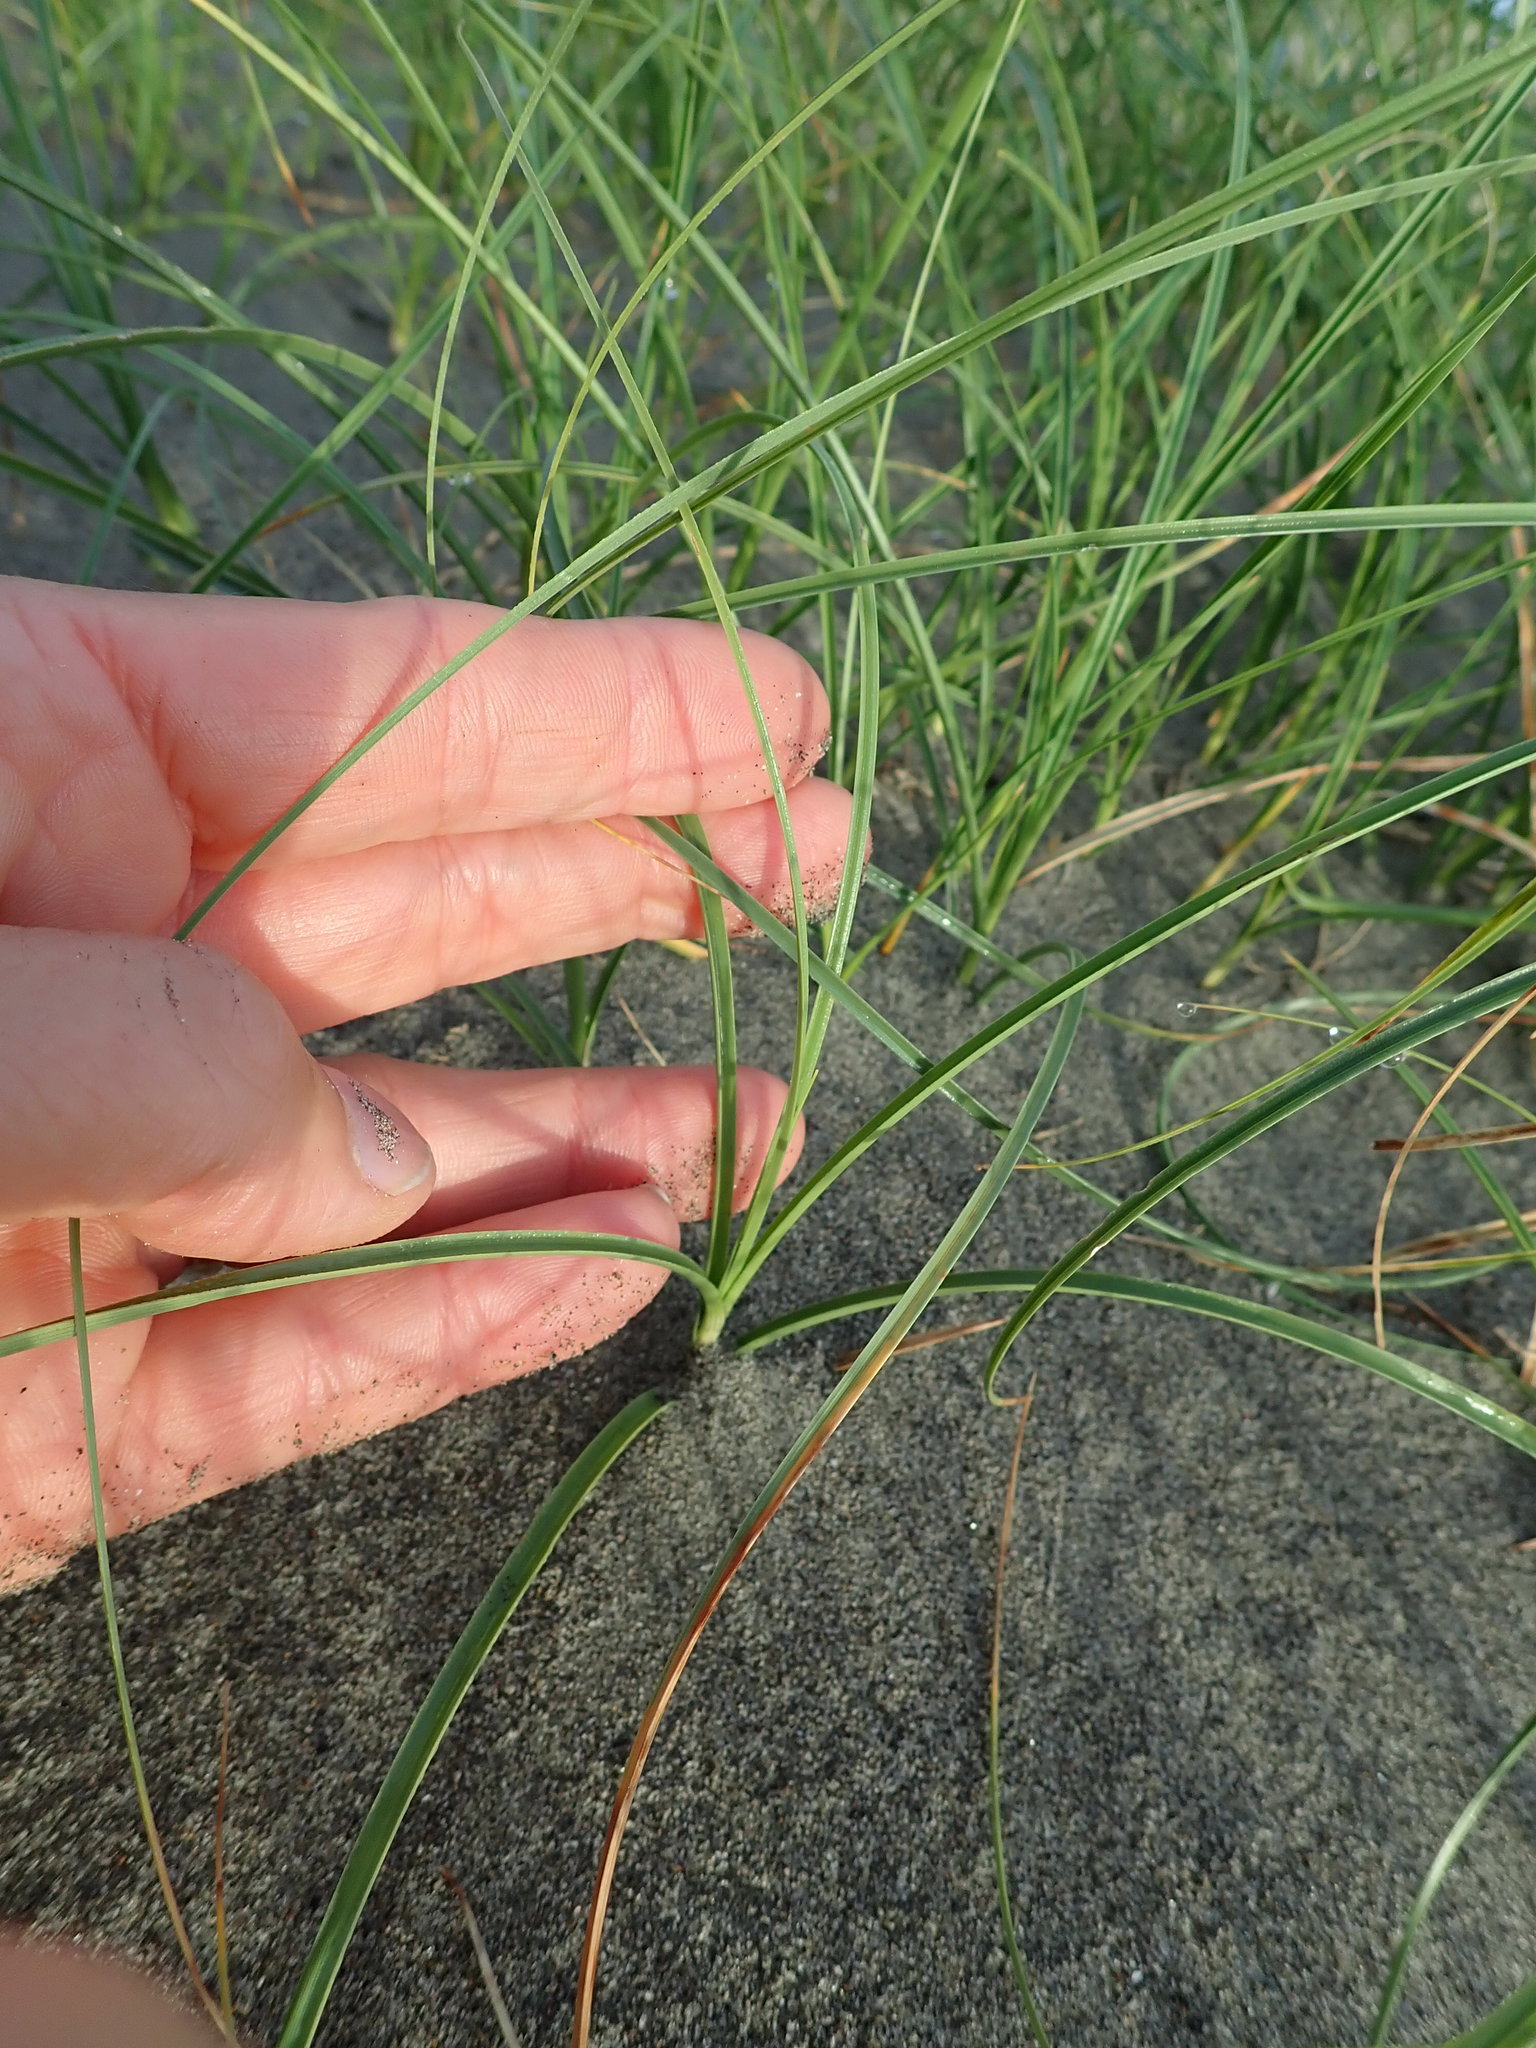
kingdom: Plantae
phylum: Tracheophyta
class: Liliopsida
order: Poales
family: Cyperaceae
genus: Carex
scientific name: Carex pumila
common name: Dwarf sedge
